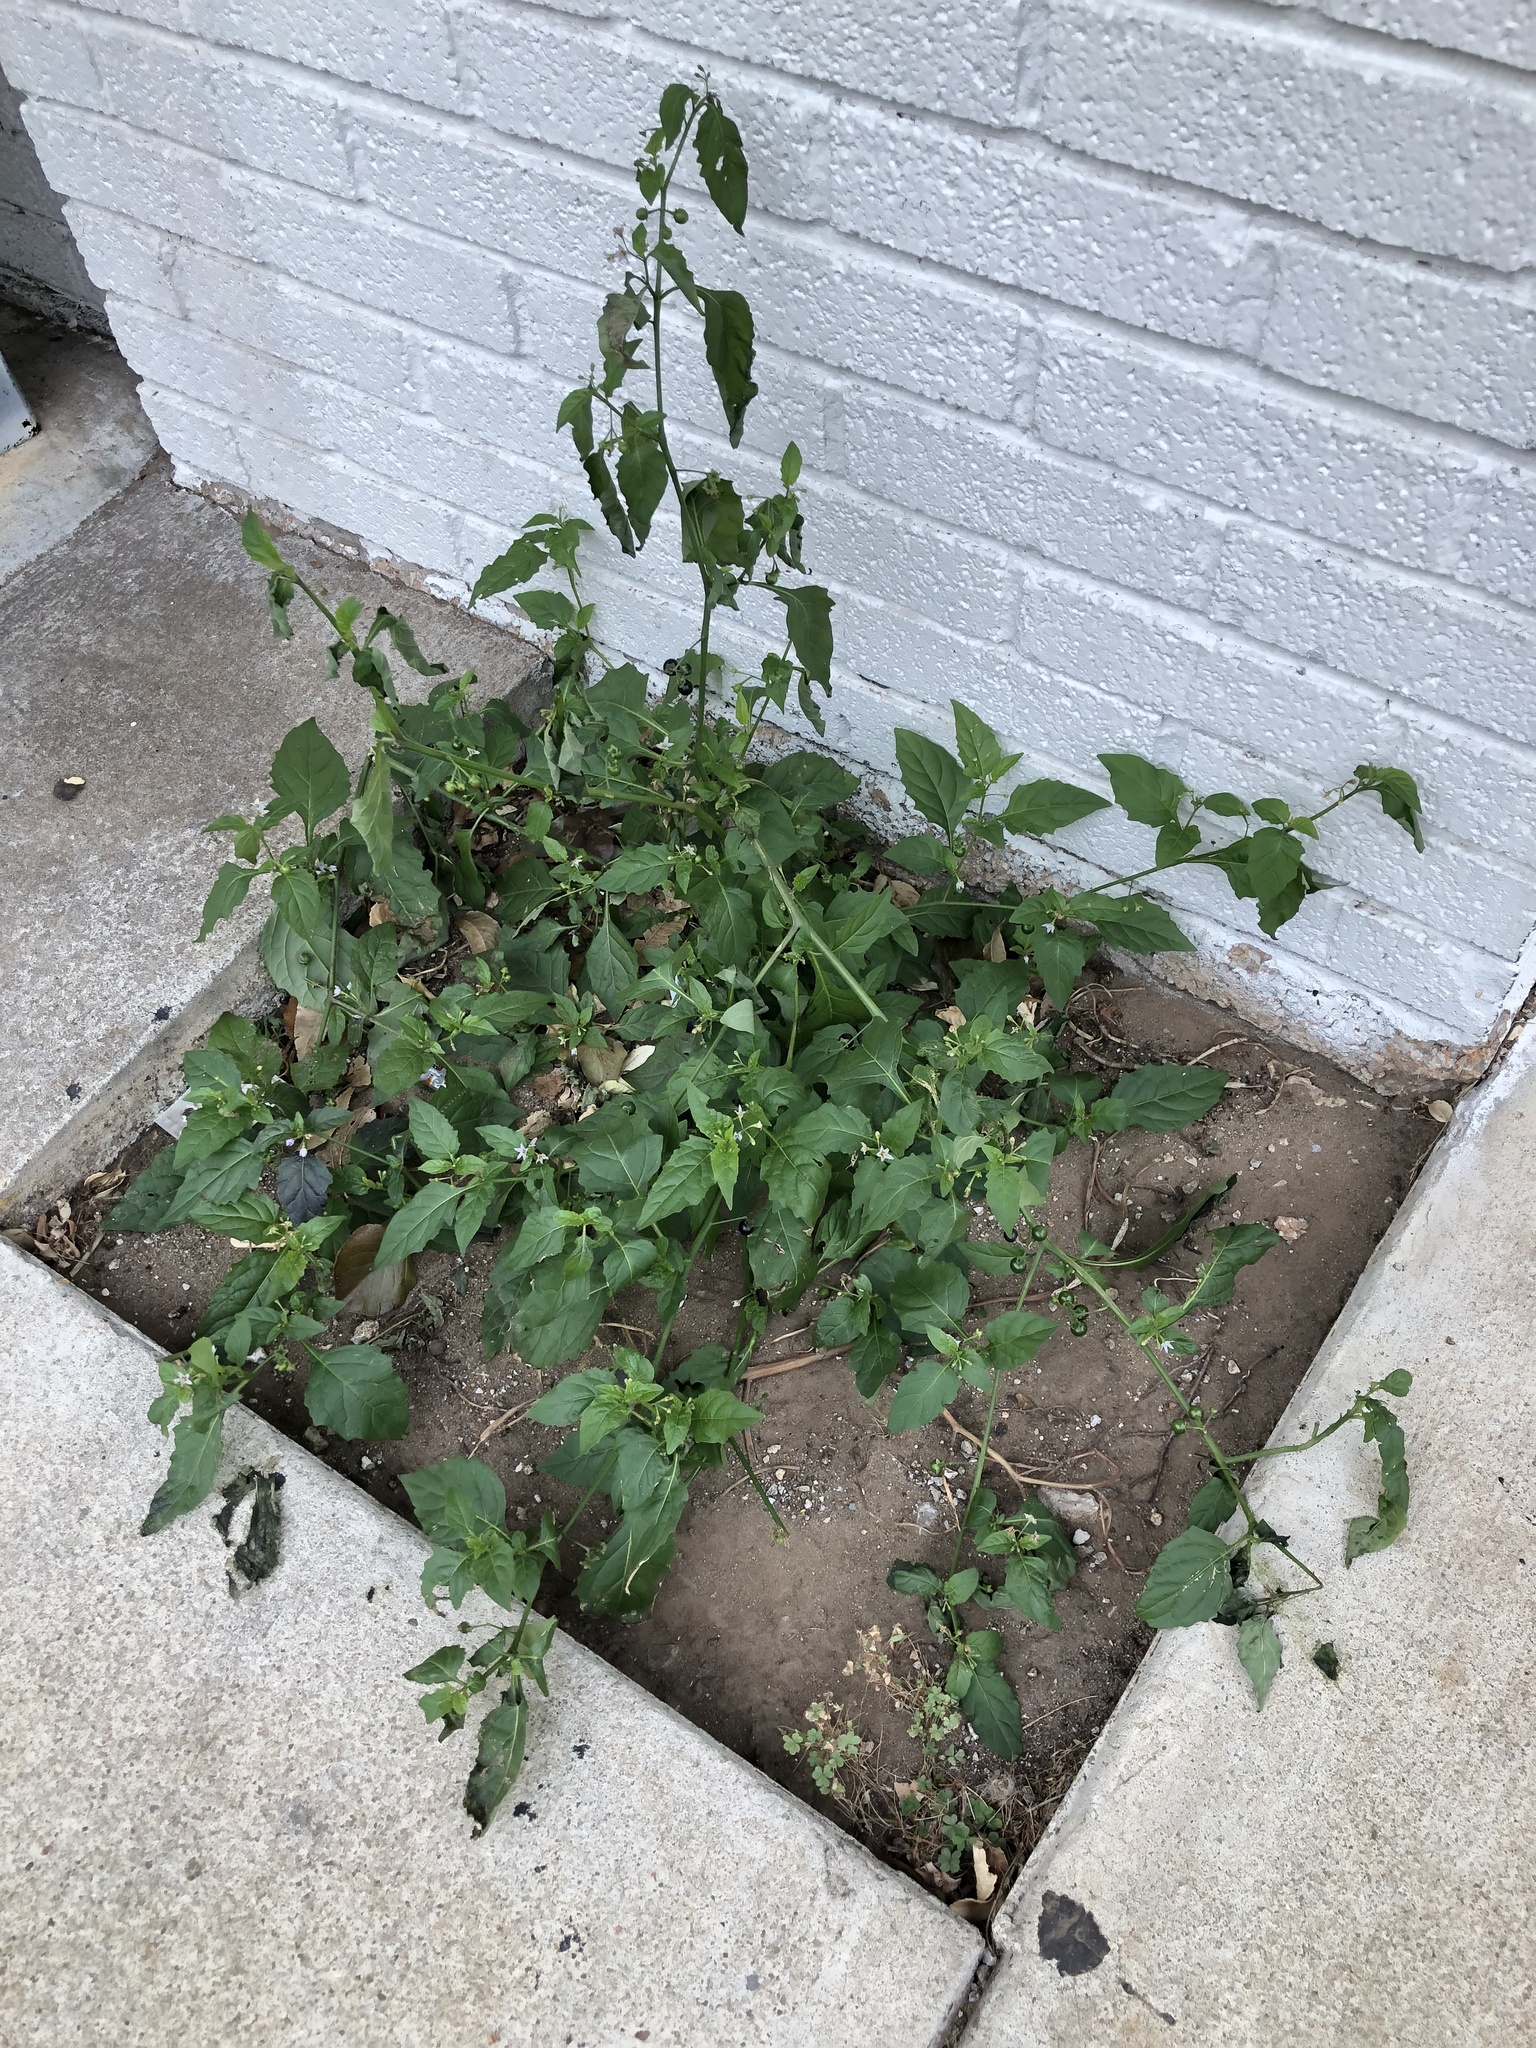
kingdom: Plantae
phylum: Tracheophyta
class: Magnoliopsida
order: Solanales
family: Solanaceae
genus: Solanum
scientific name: Solanum emulans
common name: Eastern black nightshade
